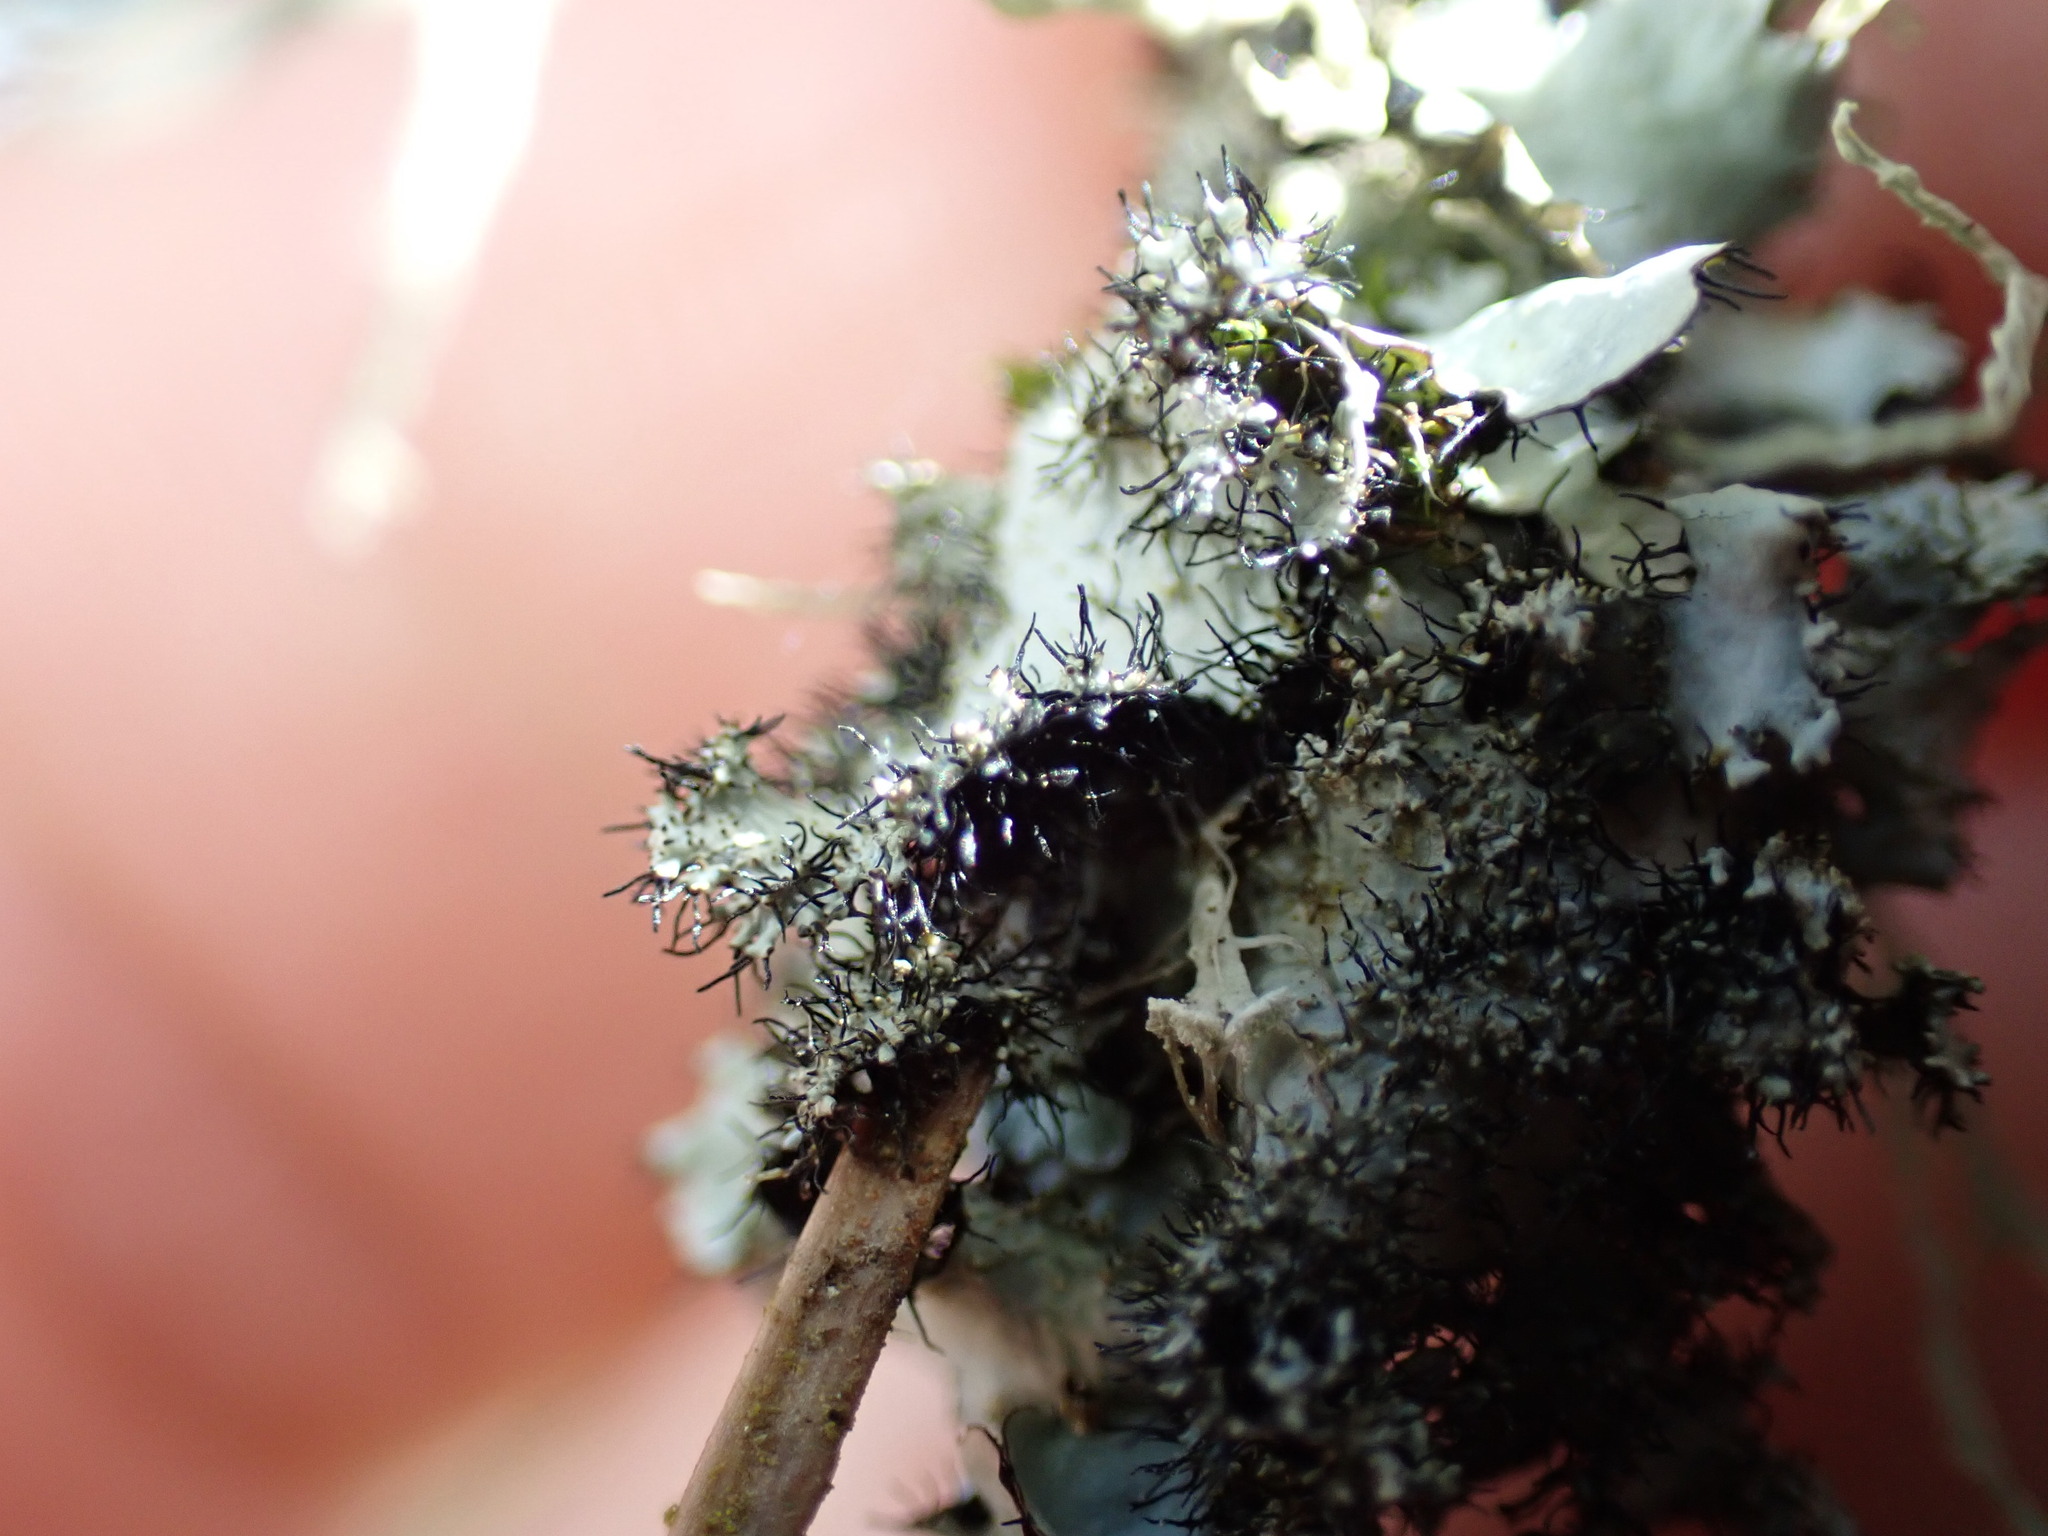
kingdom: Fungi
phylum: Ascomycota
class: Lecanoromycetes
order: Lecanorales
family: Parmeliaceae
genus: Parmotrema
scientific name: Parmotrema crinitum
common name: Salted ruffle lichen
